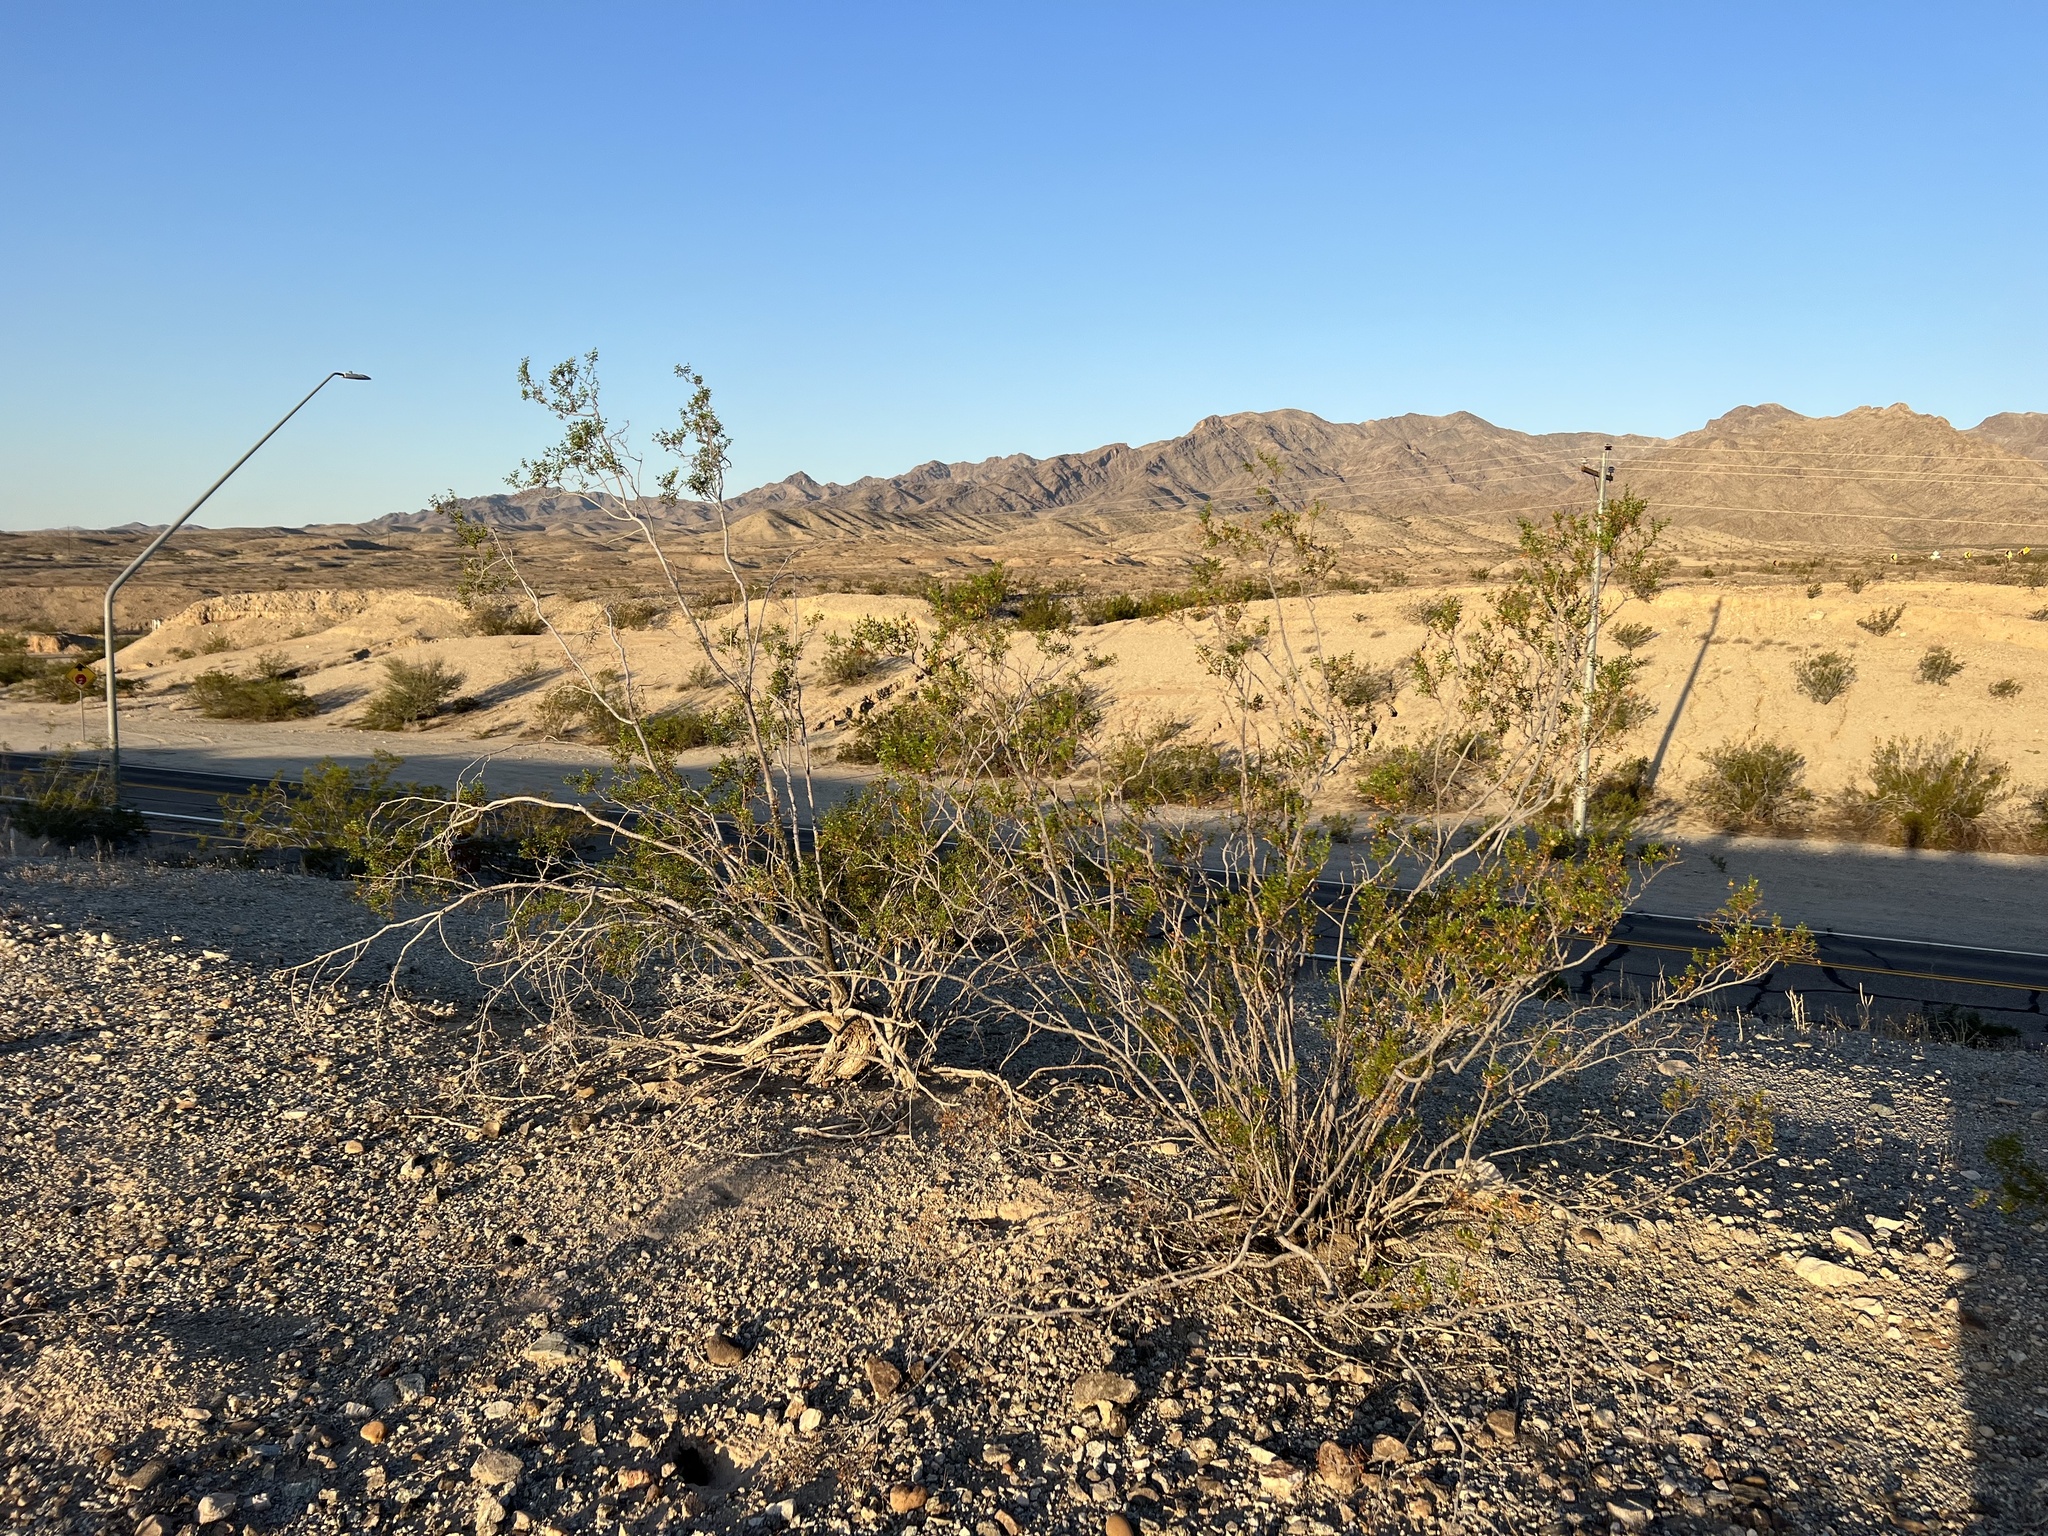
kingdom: Plantae
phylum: Tracheophyta
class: Magnoliopsida
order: Zygophyllales
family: Zygophyllaceae
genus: Larrea
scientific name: Larrea tridentata
